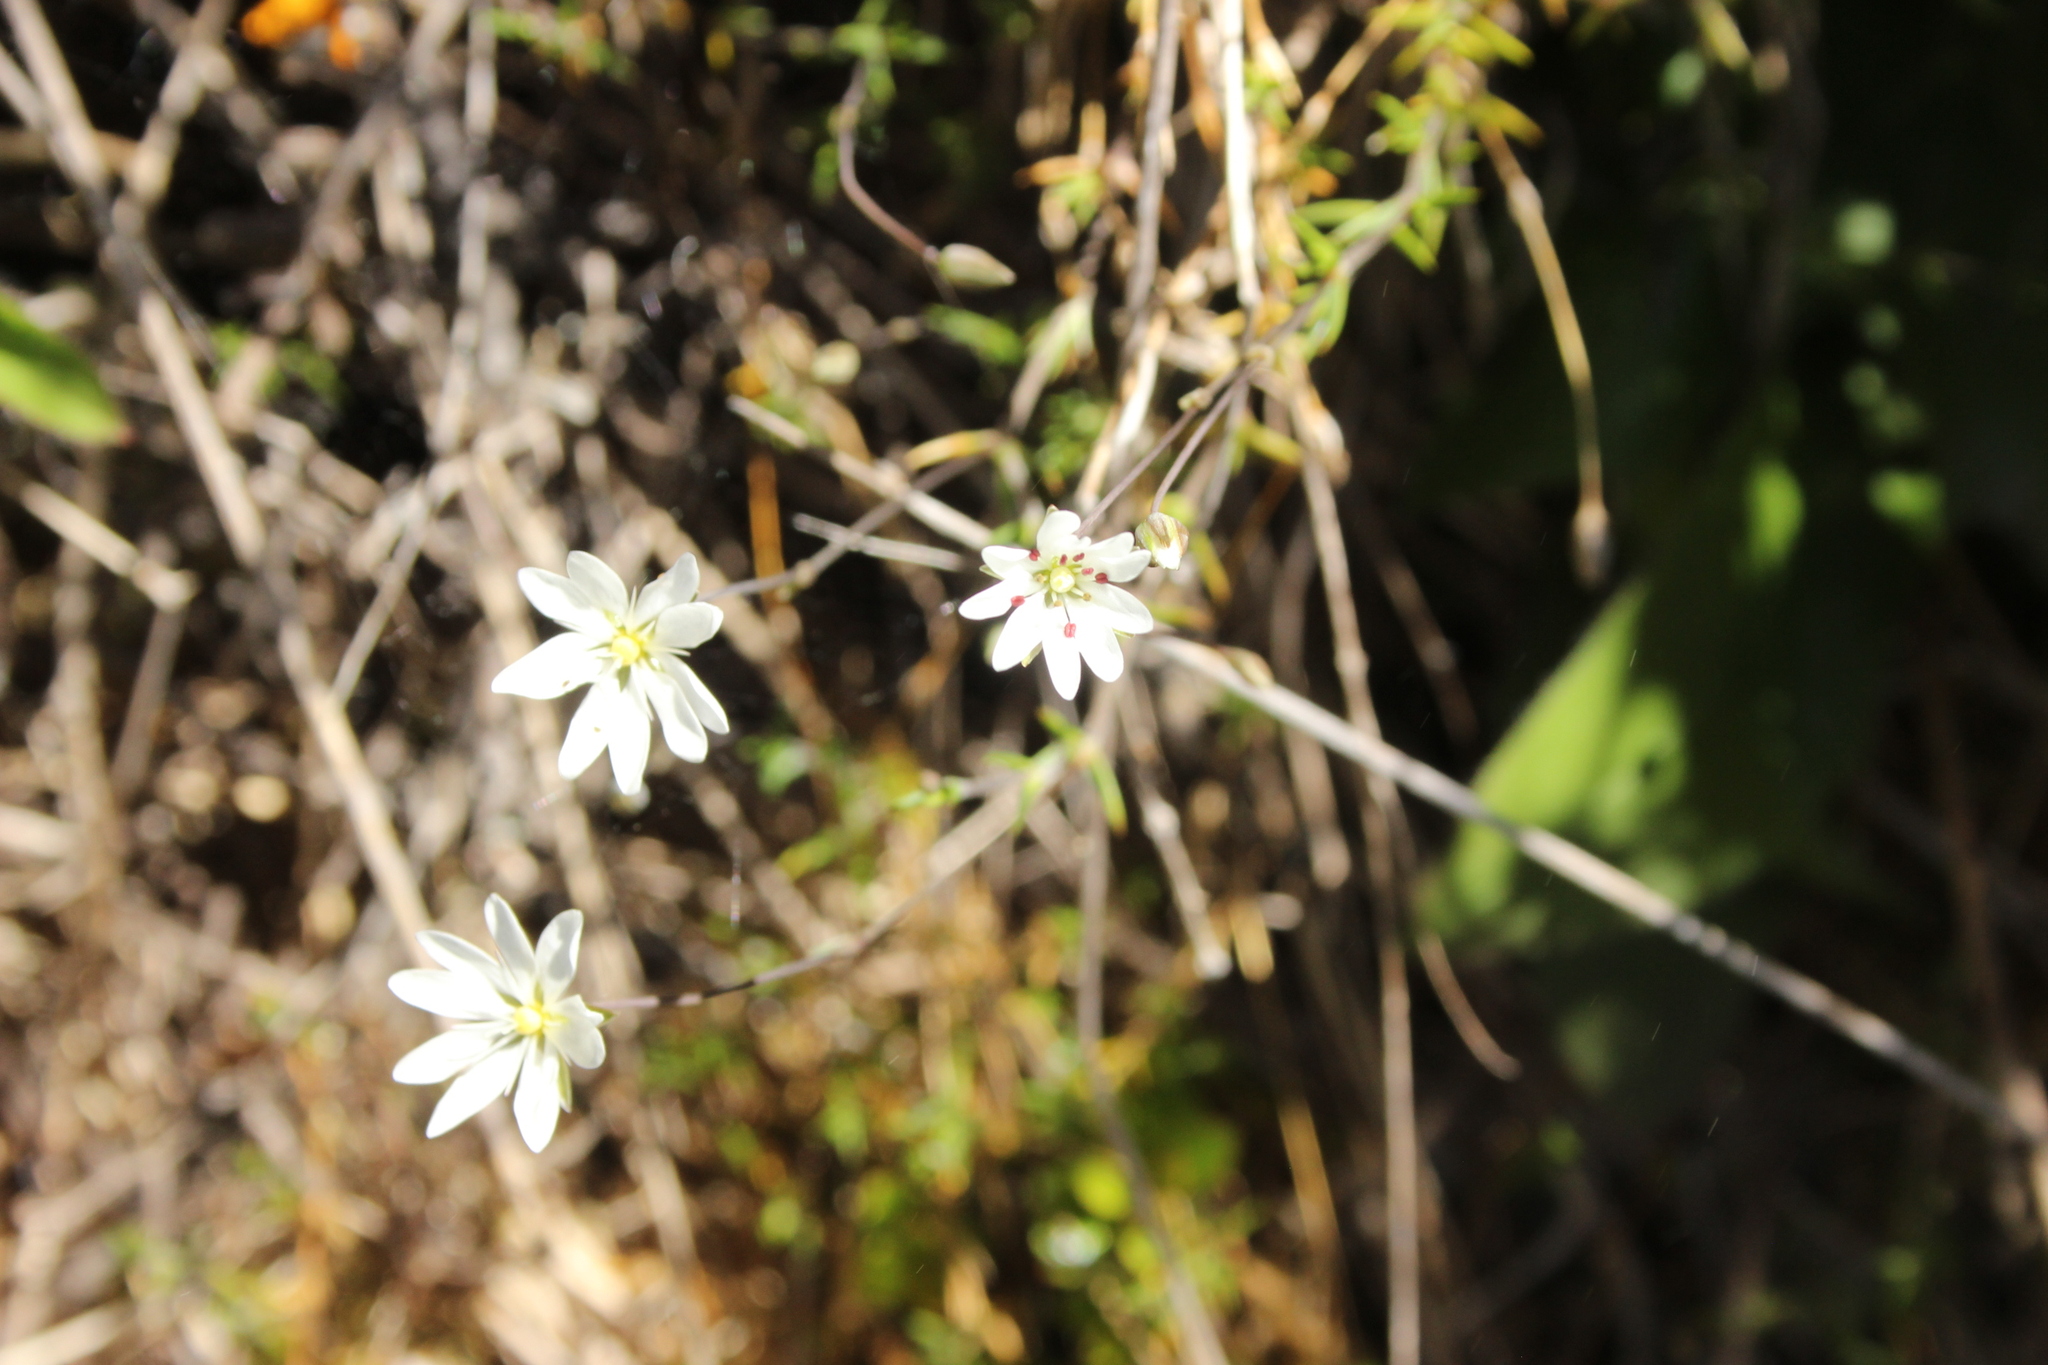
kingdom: Plantae
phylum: Tracheophyta
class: Magnoliopsida
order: Caryophyllales
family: Caryophyllaceae
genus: Stellaria
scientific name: Stellaria gracilenta
